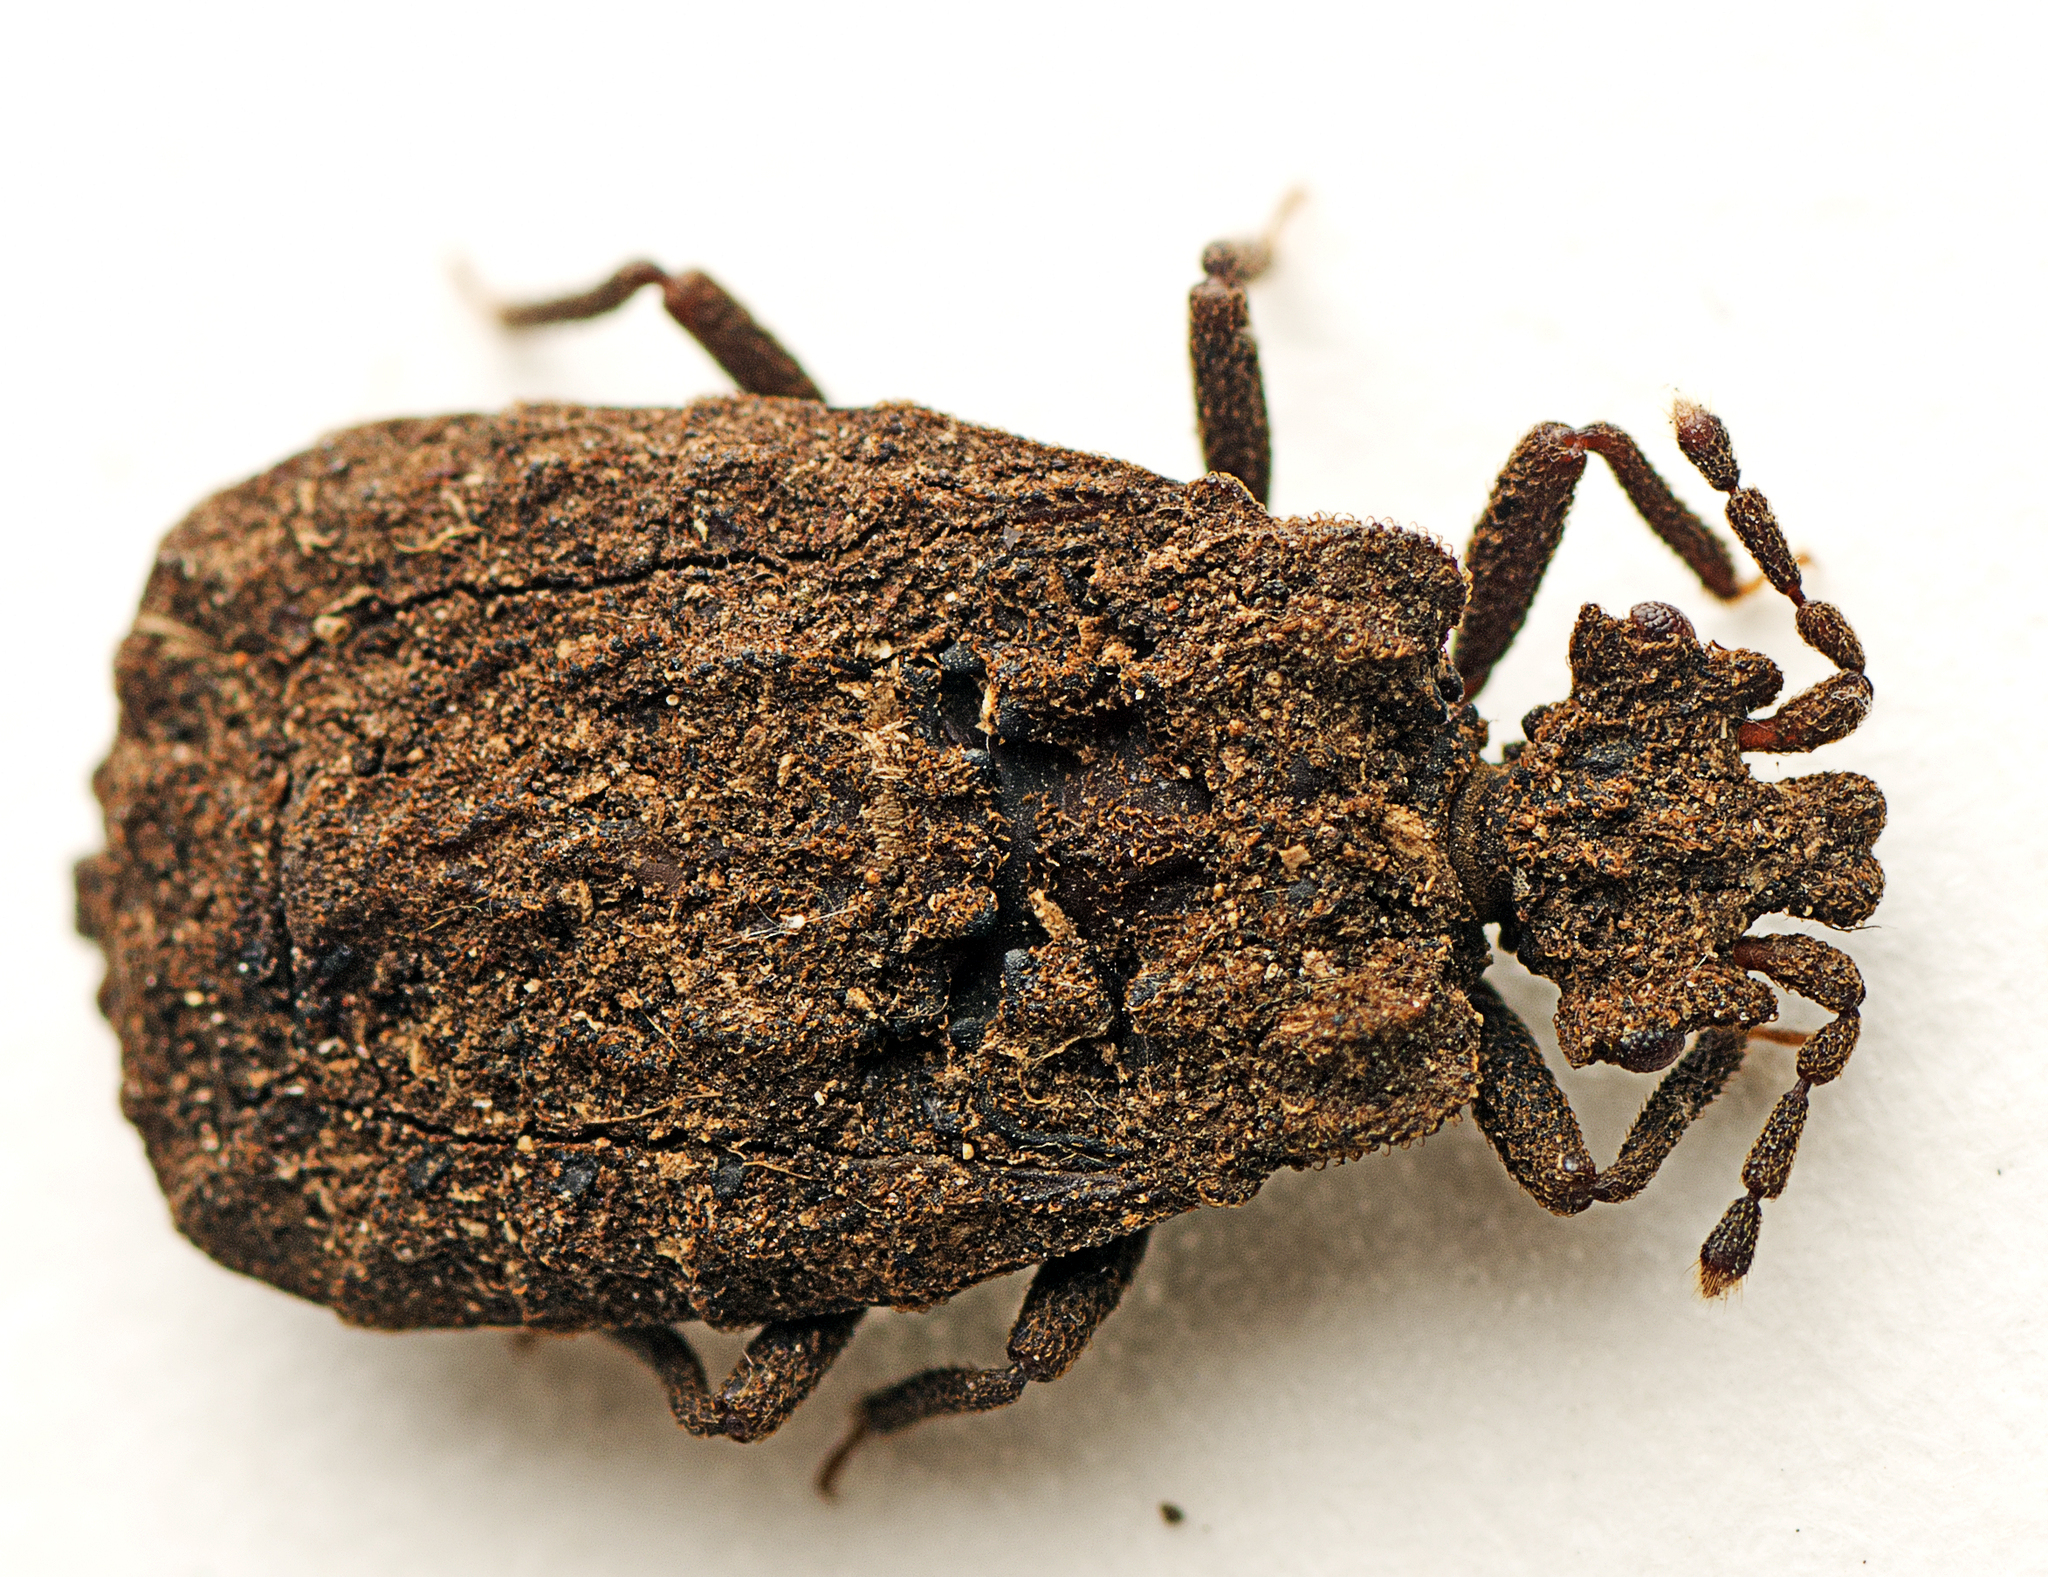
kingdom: Animalia
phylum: Arthropoda
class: Insecta
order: Hemiptera
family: Aradidae
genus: Drakiessa
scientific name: Drakiessa
